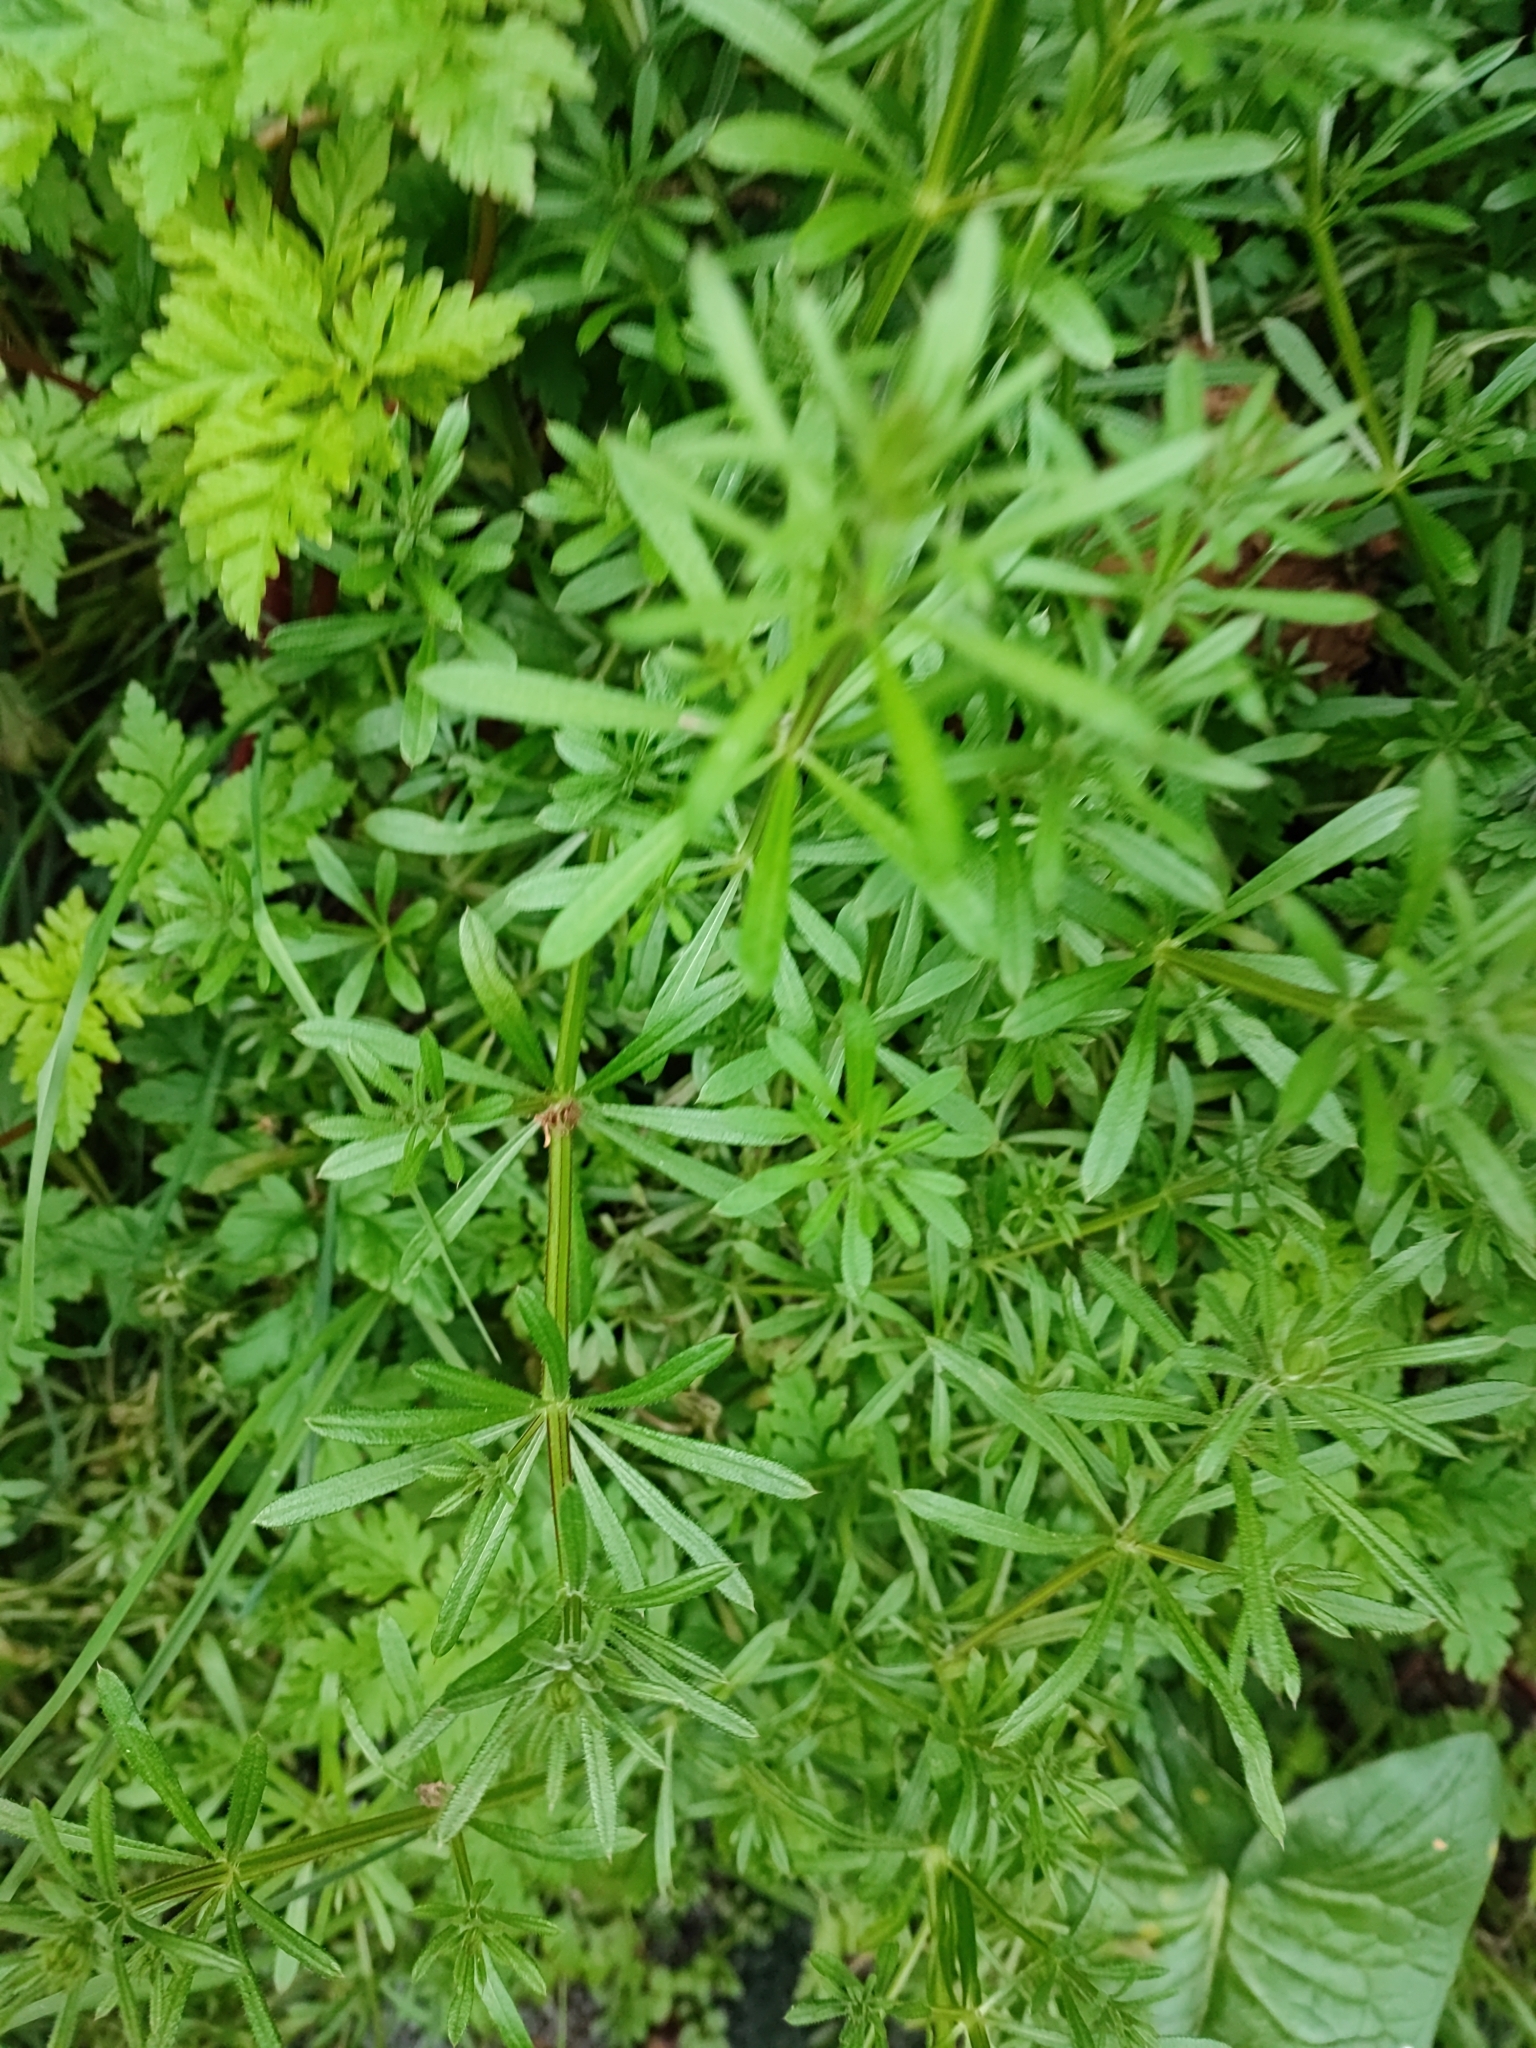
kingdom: Plantae
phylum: Tracheophyta
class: Magnoliopsida
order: Gentianales
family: Rubiaceae
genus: Galium
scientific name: Galium aparine
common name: Cleavers
